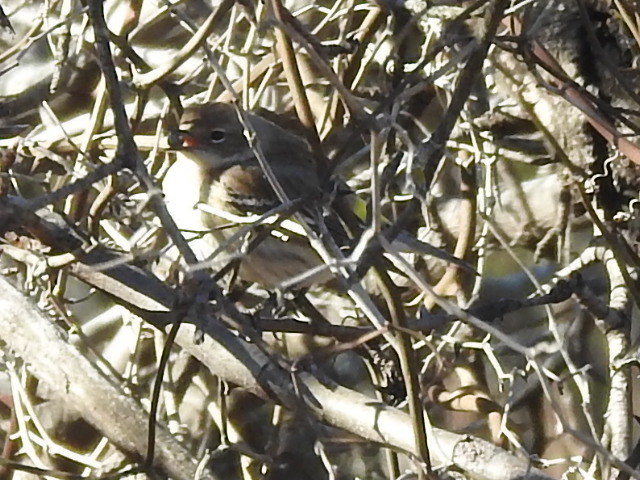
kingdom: Animalia
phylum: Chordata
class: Aves
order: Passeriformes
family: Parulidae
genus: Setophaga
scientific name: Setophaga coronata
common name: Myrtle warbler
